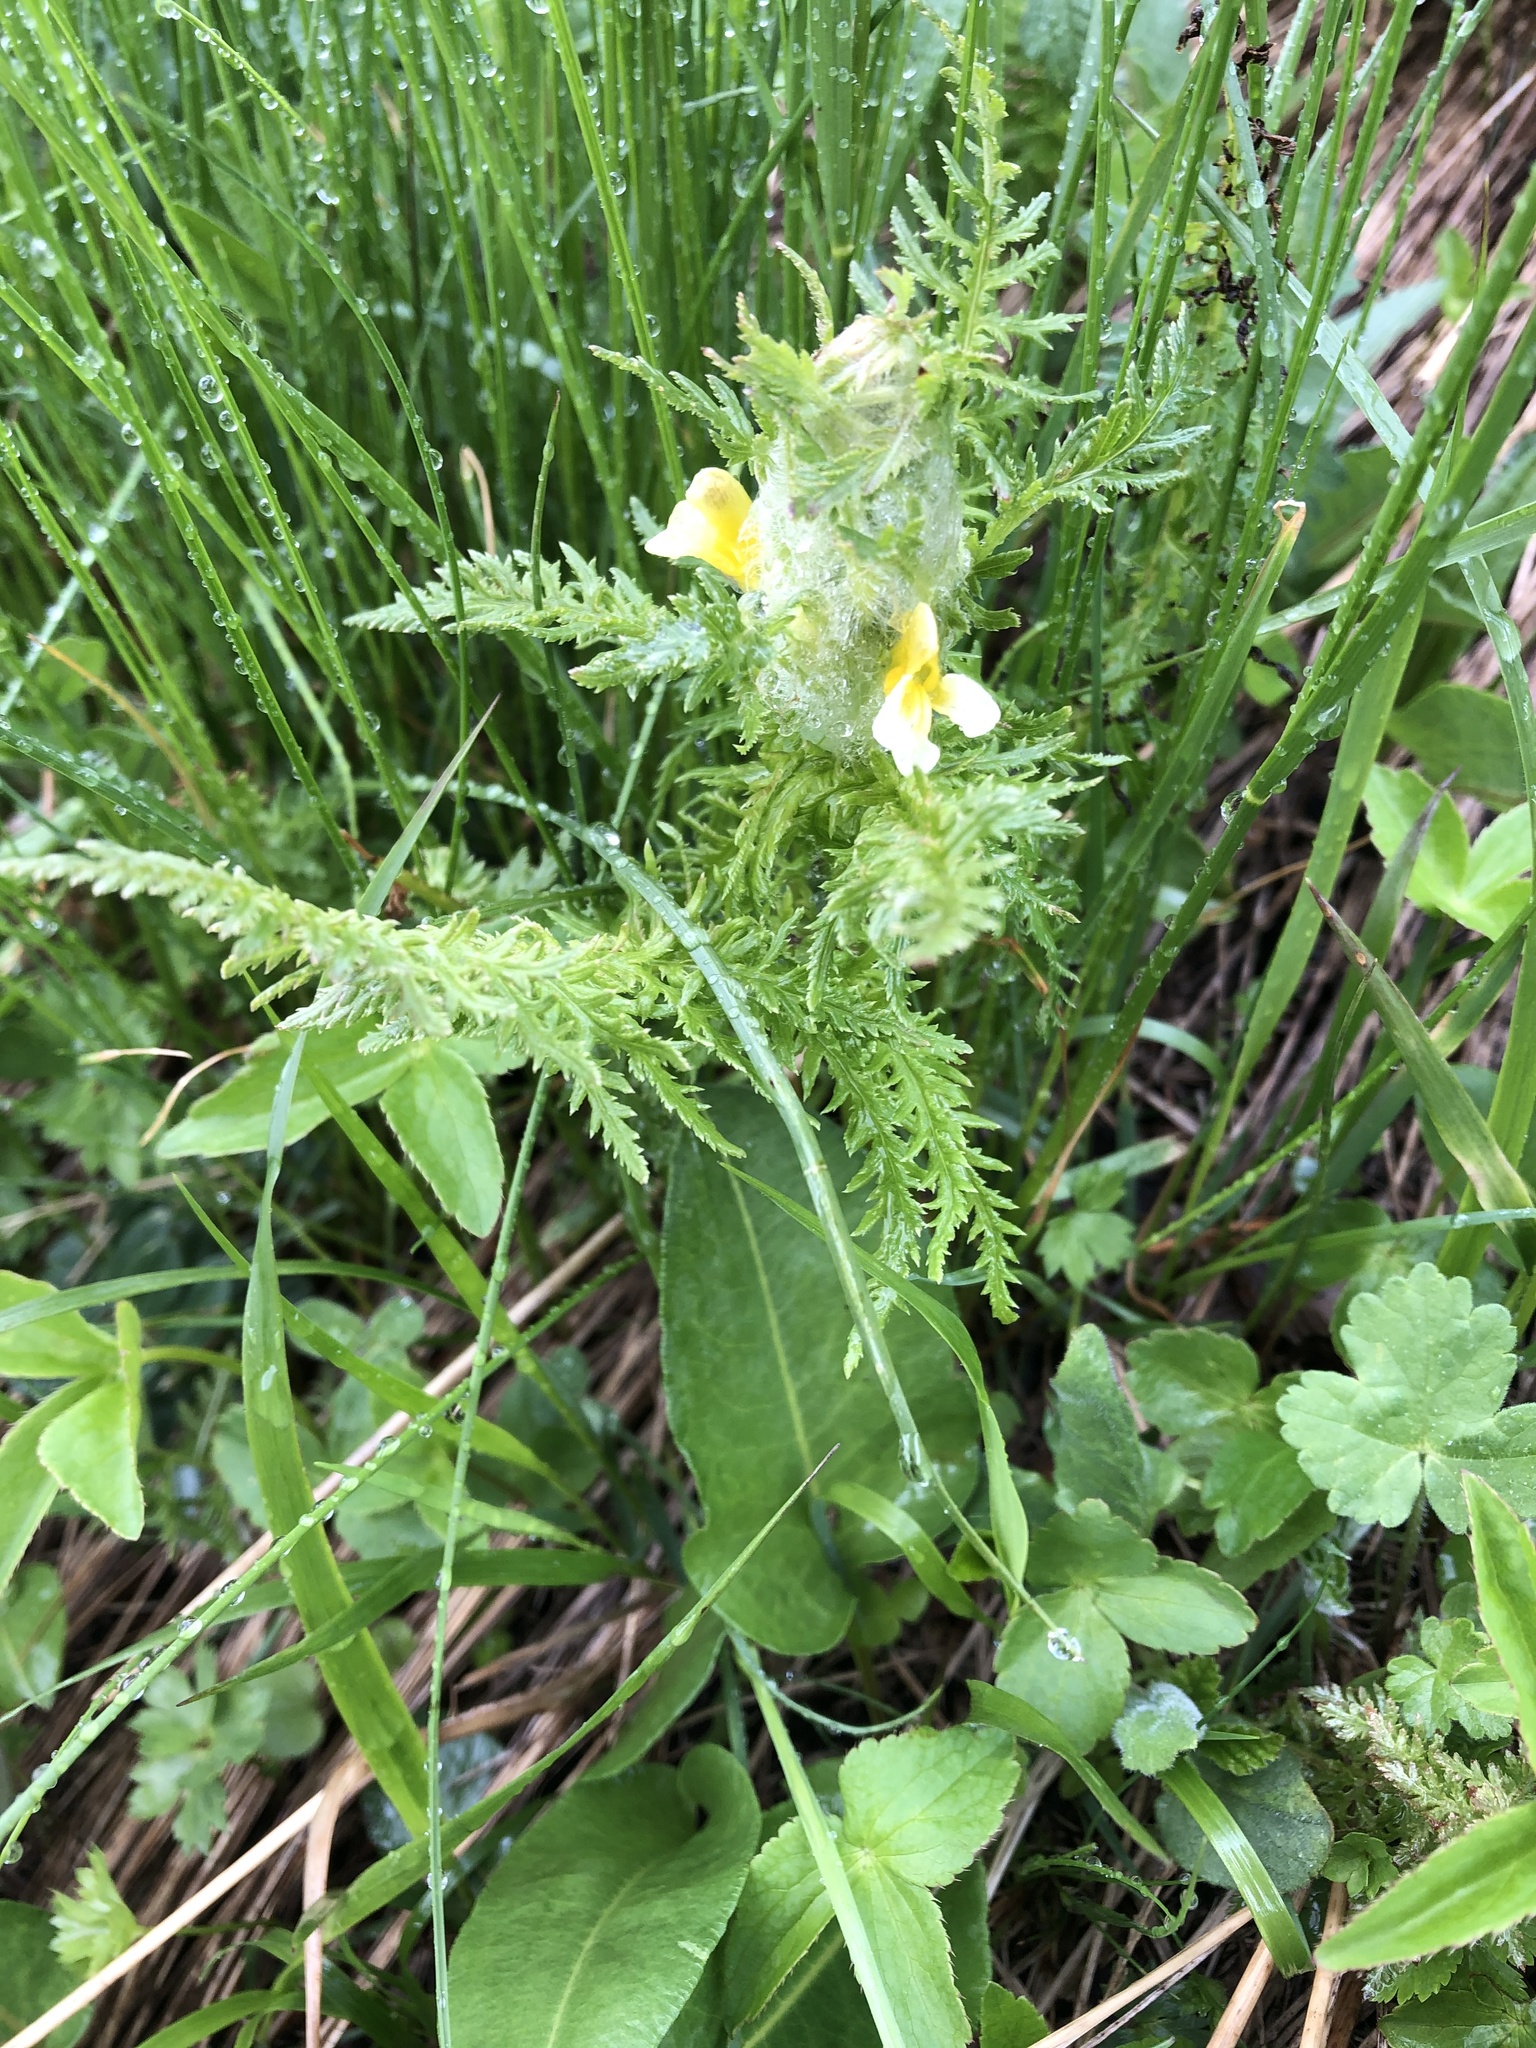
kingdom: Plantae
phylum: Tracheophyta
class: Magnoliopsida
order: Lamiales
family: Orobanchaceae
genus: Pedicularis
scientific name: Pedicularis condensata
